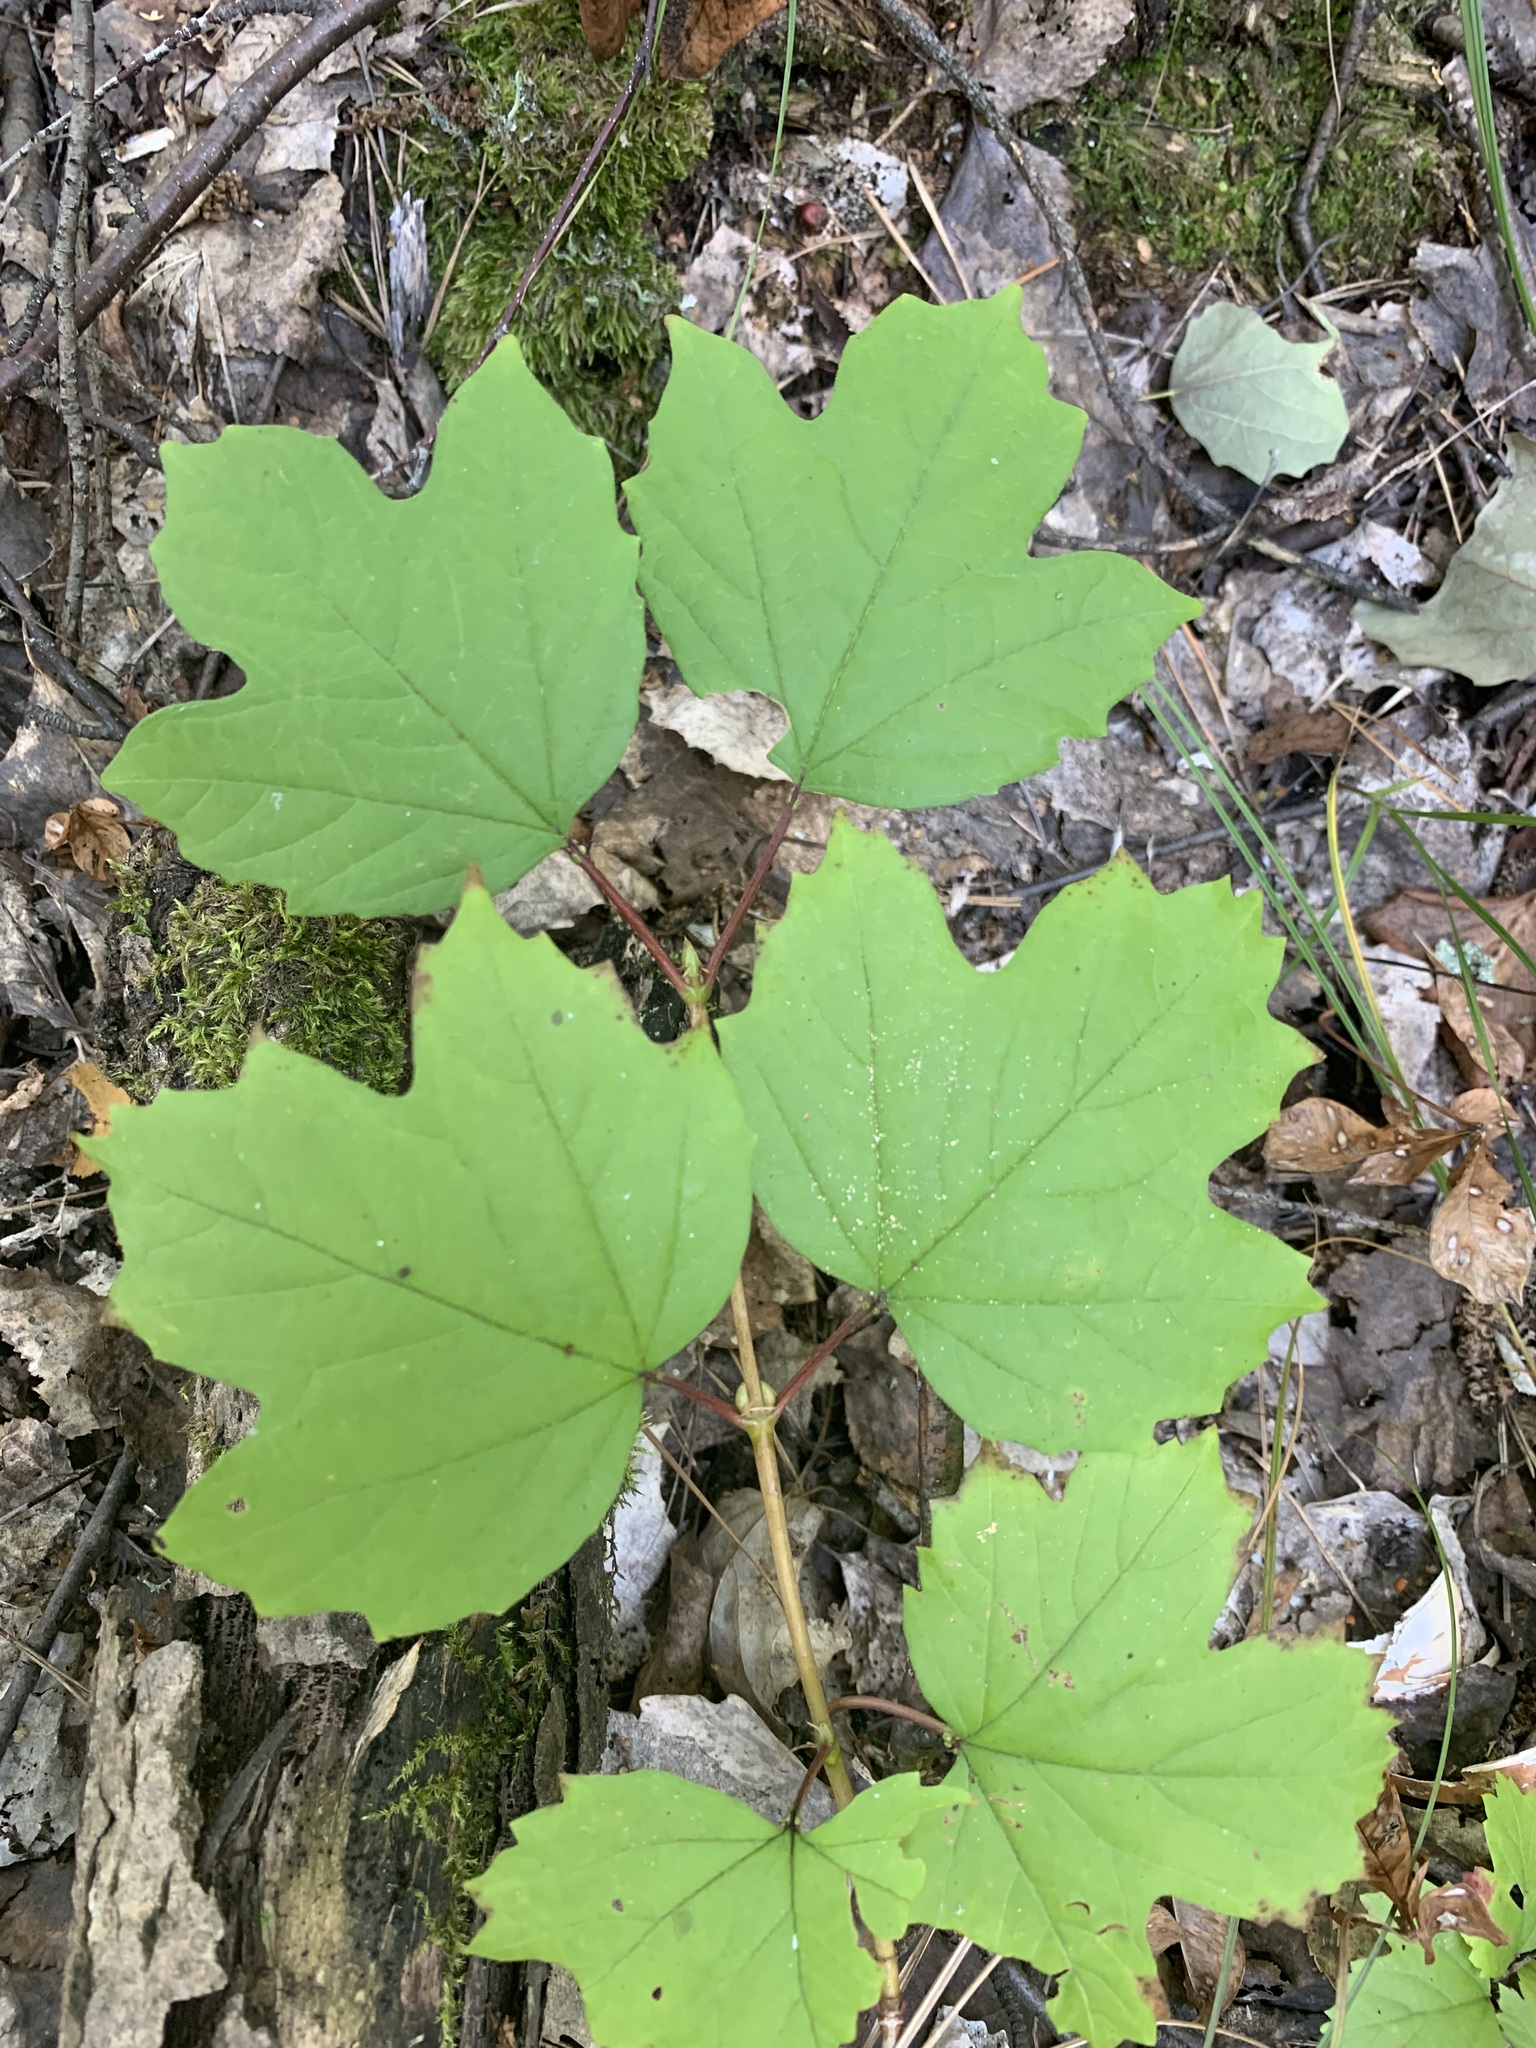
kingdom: Plantae
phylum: Tracheophyta
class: Magnoliopsida
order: Dipsacales
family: Viburnaceae
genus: Viburnum
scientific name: Viburnum opulus
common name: Guelder-rose
